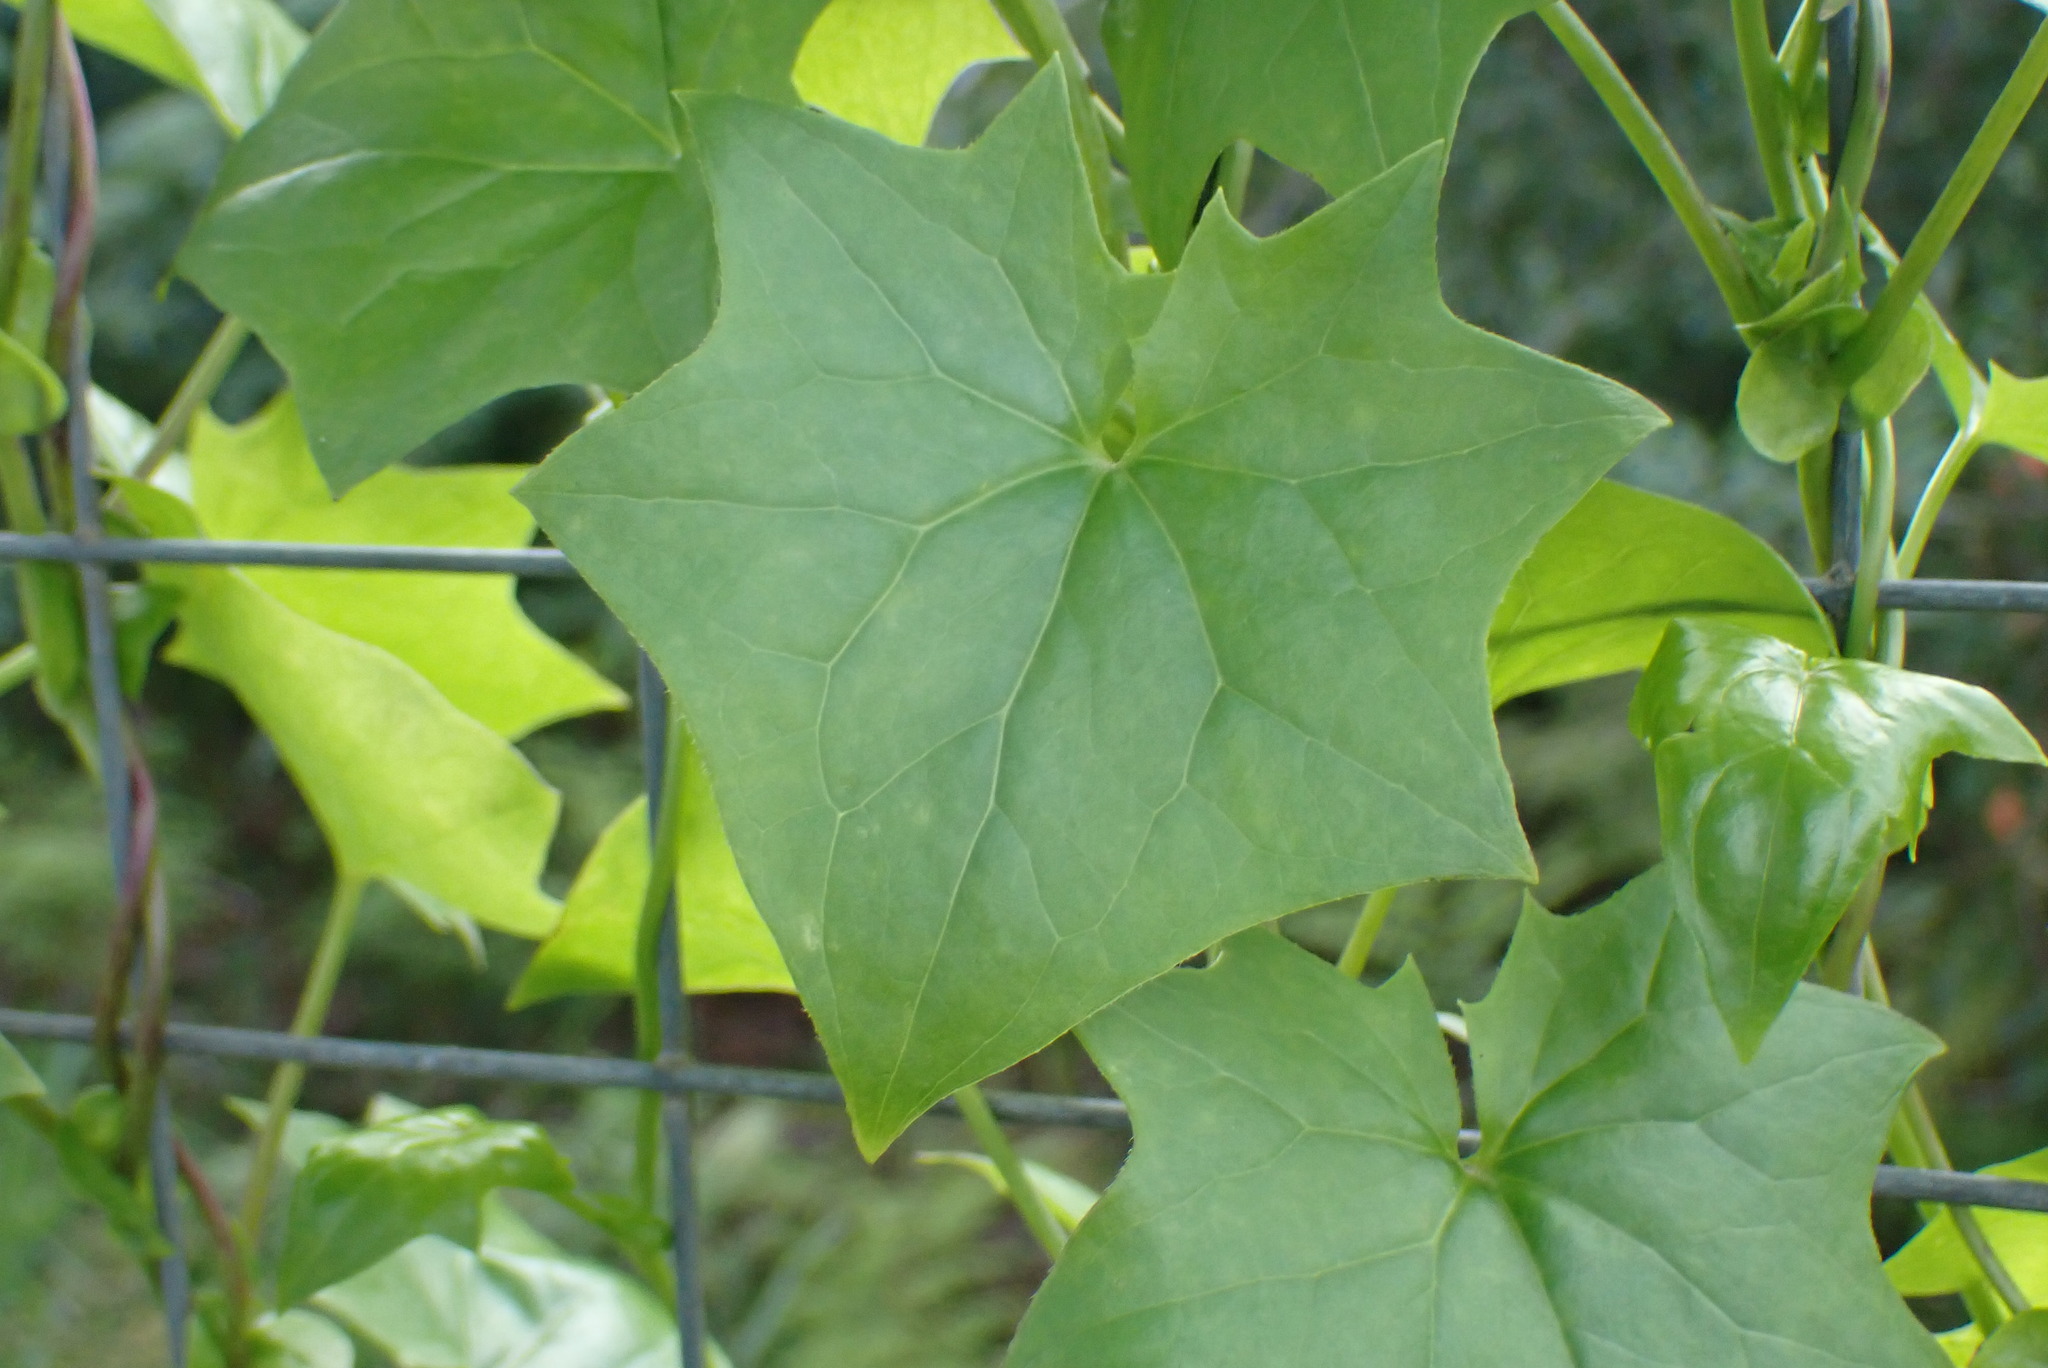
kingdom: Plantae
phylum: Tracheophyta
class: Magnoliopsida
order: Asterales
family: Asteraceae
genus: Delairea
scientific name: Delairea odorata
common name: Cape-ivy
